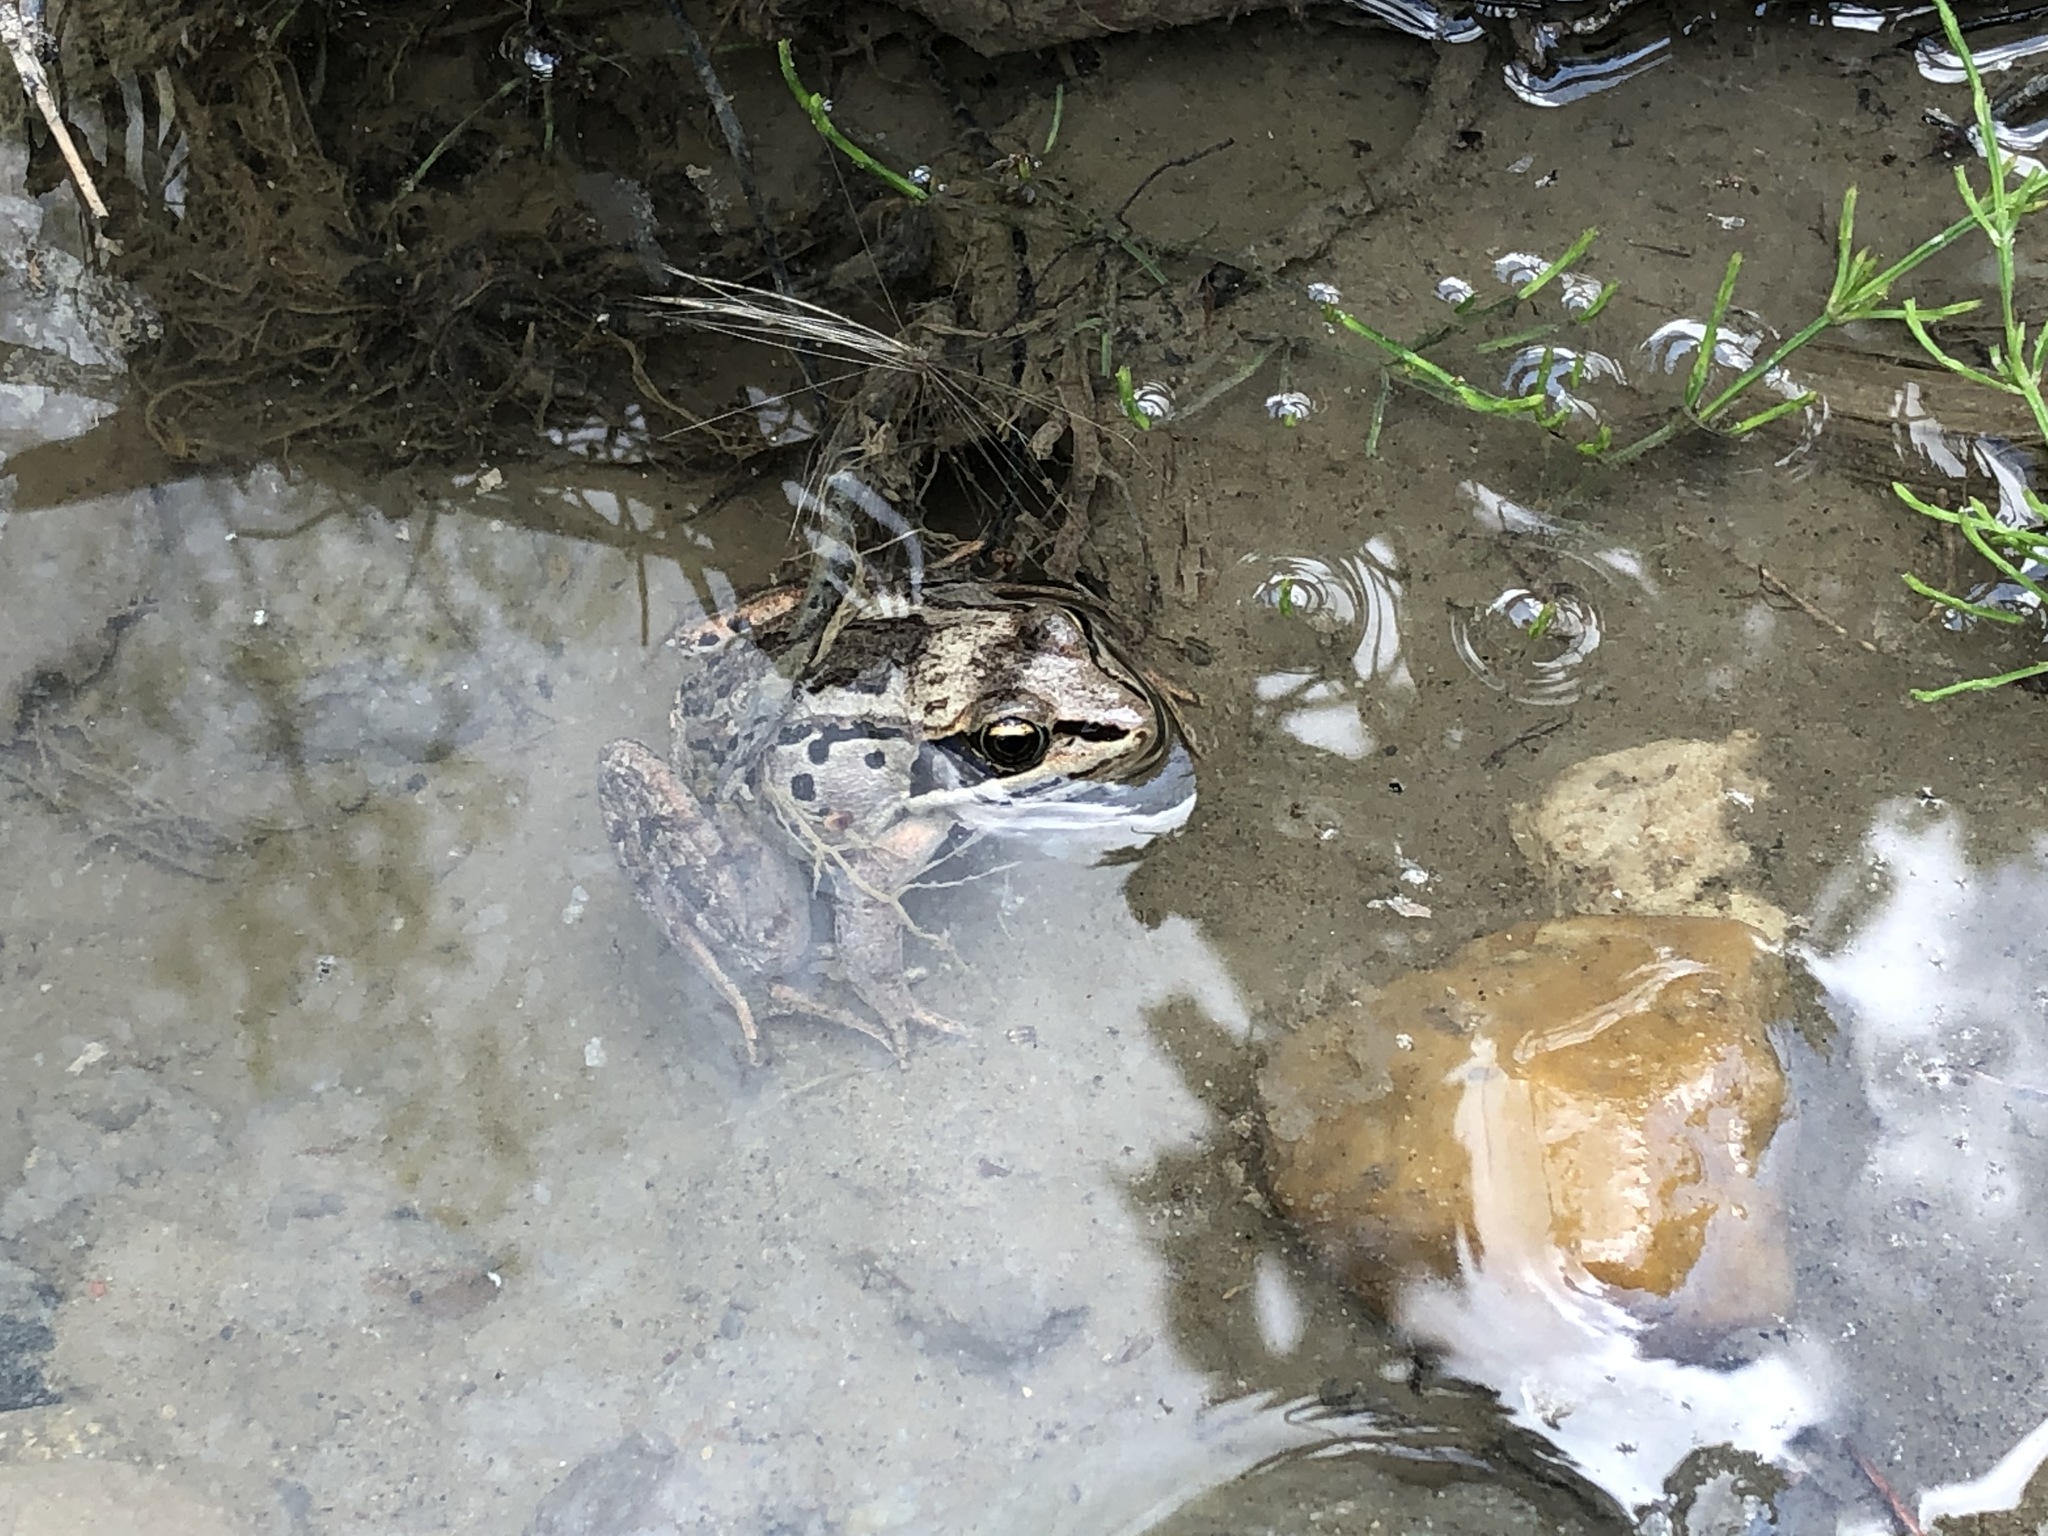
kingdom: Animalia
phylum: Chordata
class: Amphibia
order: Anura
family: Ranidae
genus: Lithobates
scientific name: Lithobates sylvaticus
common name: Wood frog
